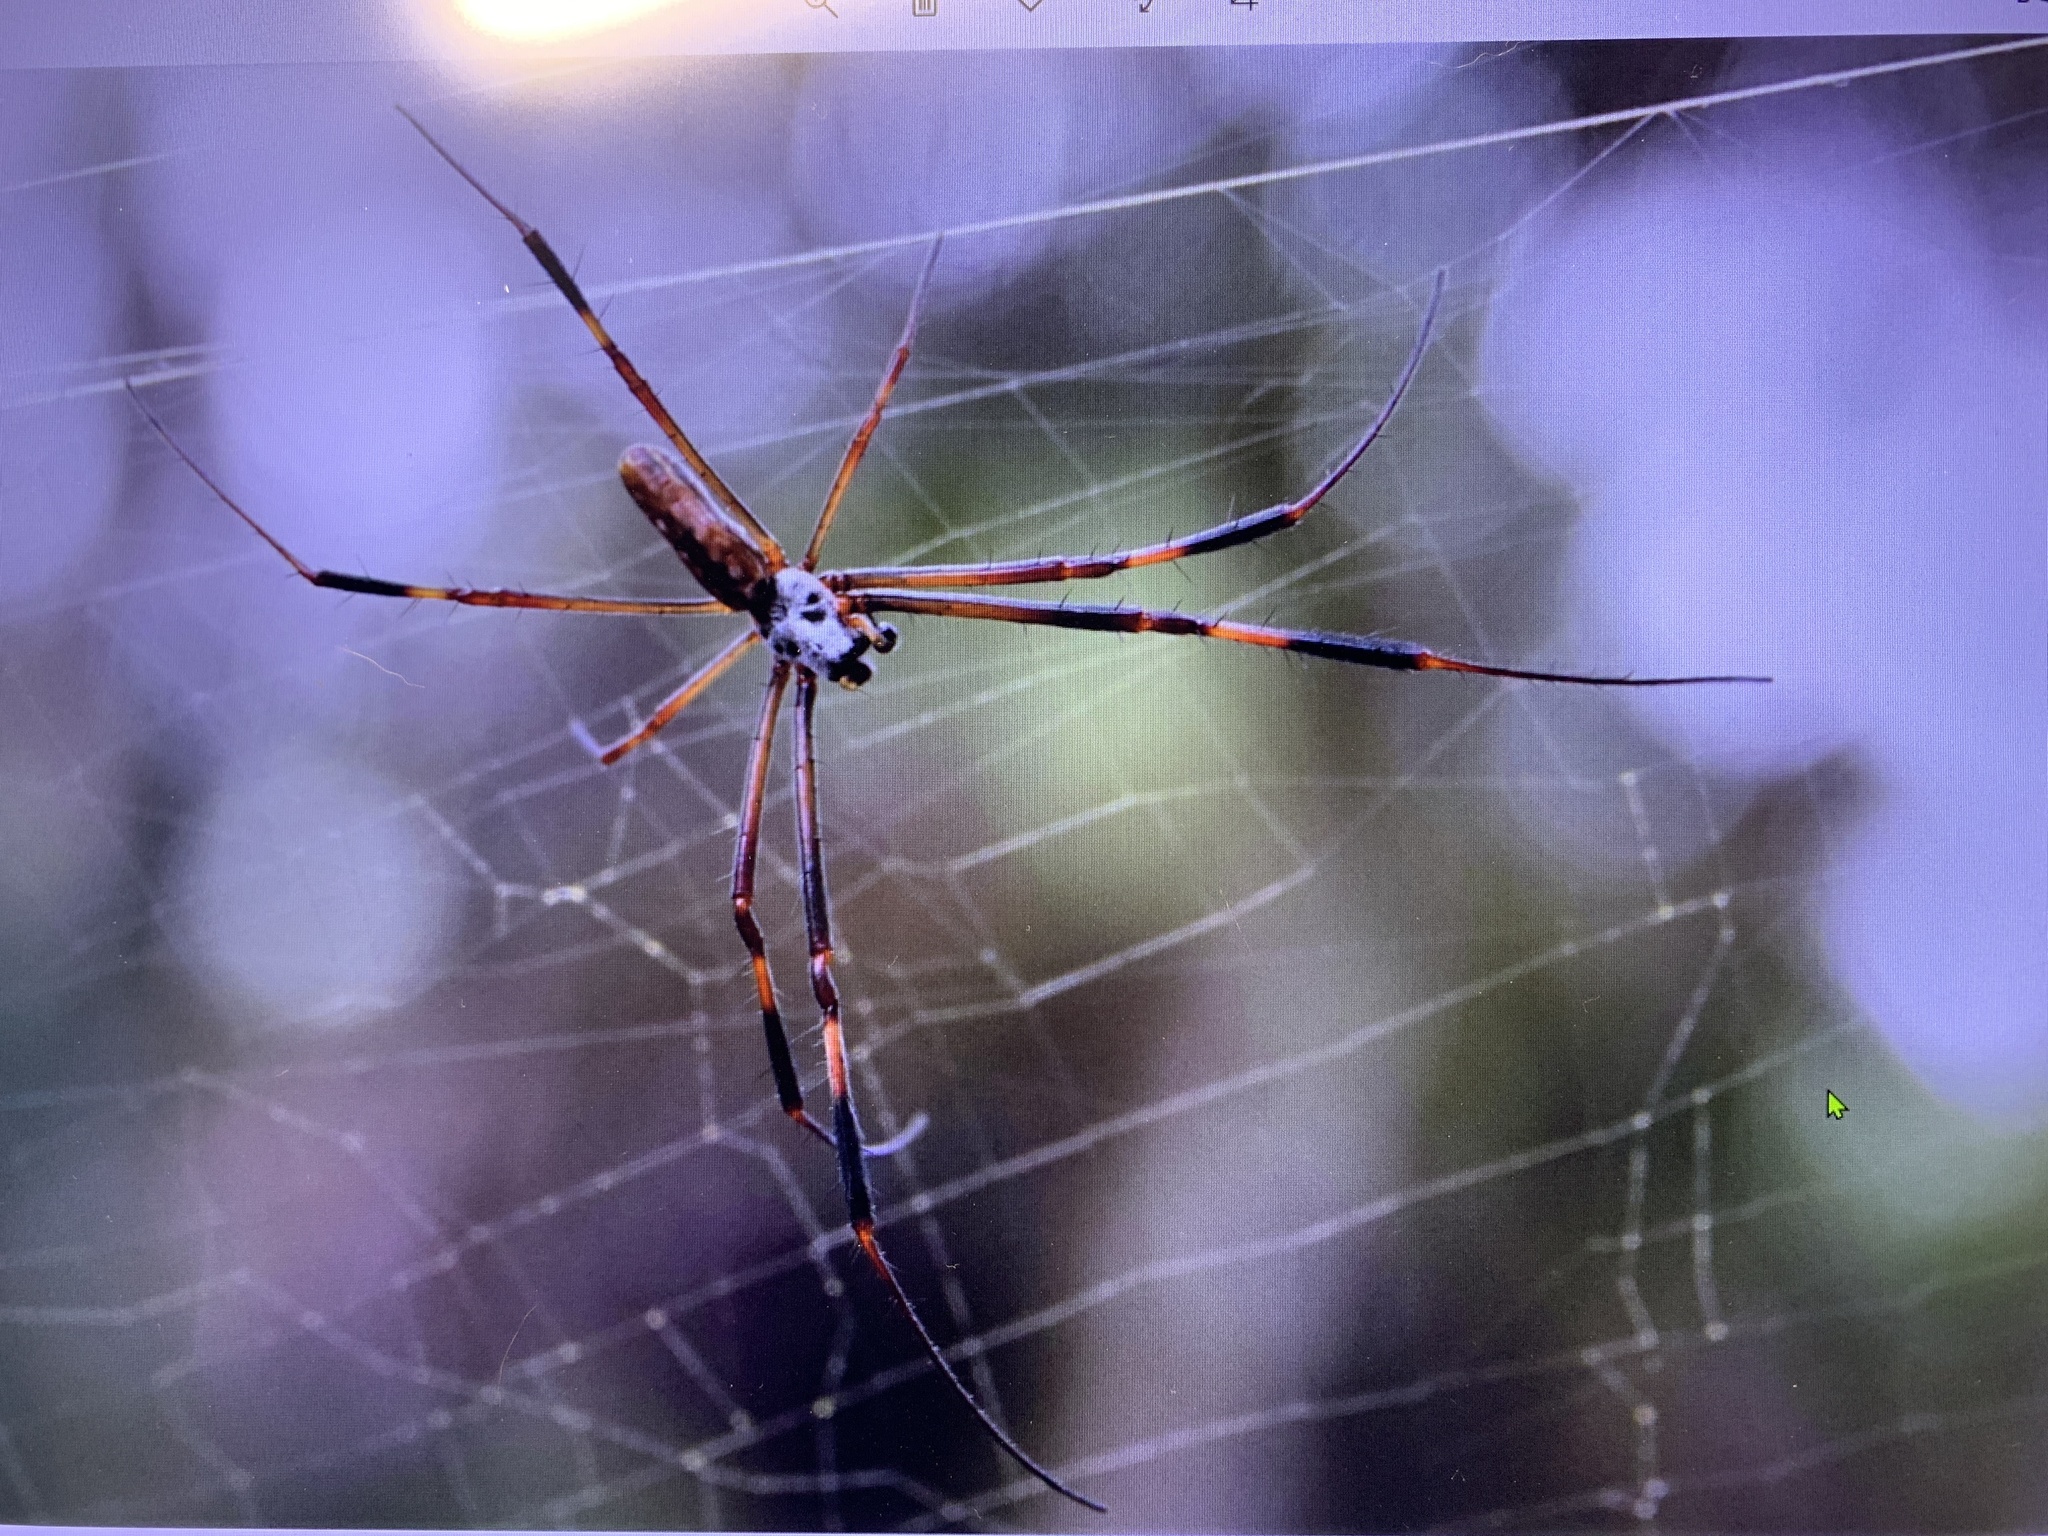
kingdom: Animalia
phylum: Arthropoda
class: Arachnida
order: Araneae
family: Araneidae
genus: Trichonephila
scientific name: Trichonephila clavipes
